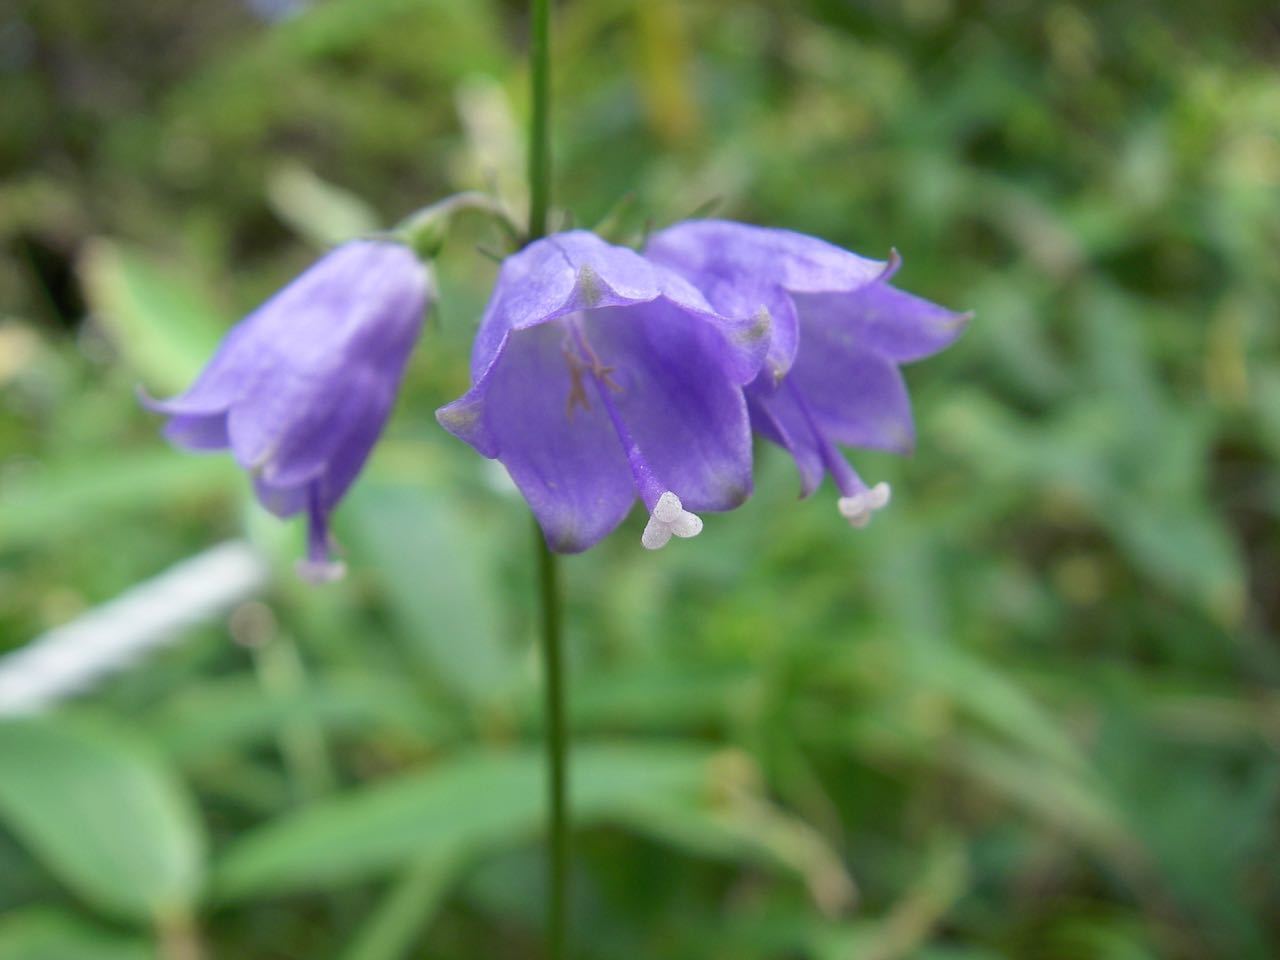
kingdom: Plantae
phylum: Tracheophyta
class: Magnoliopsida
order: Asterales
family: Campanulaceae
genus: Adenophora
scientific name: Adenophora triphylla
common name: Giant-bellflower
